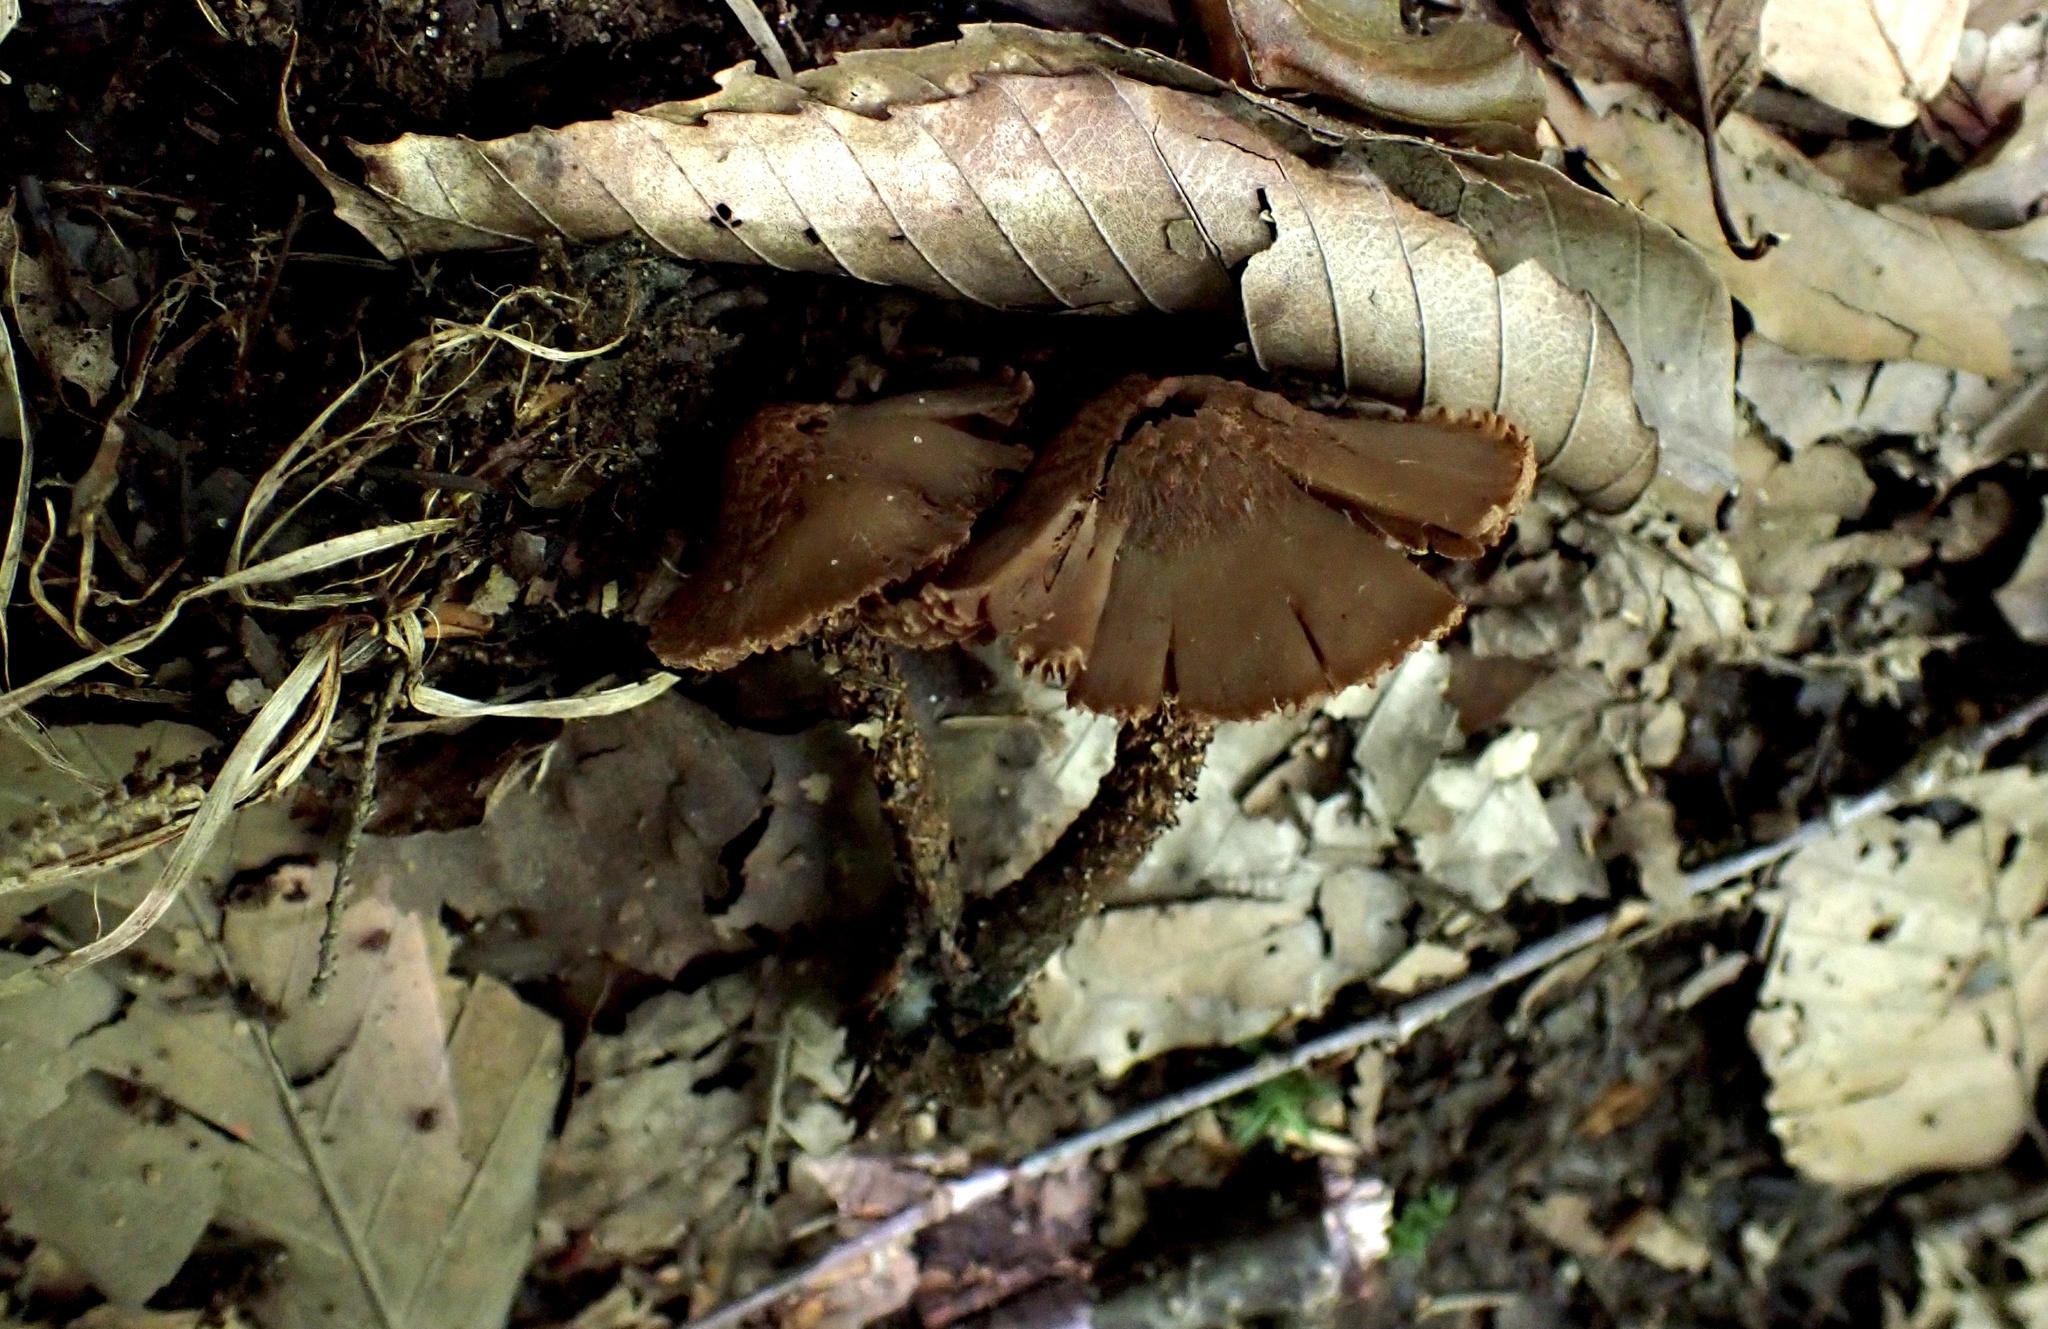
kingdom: Fungi
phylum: Basidiomycota
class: Agaricomycetes
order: Agaricales
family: Inocybaceae
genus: Inosperma
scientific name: Inosperma apiosmotum
